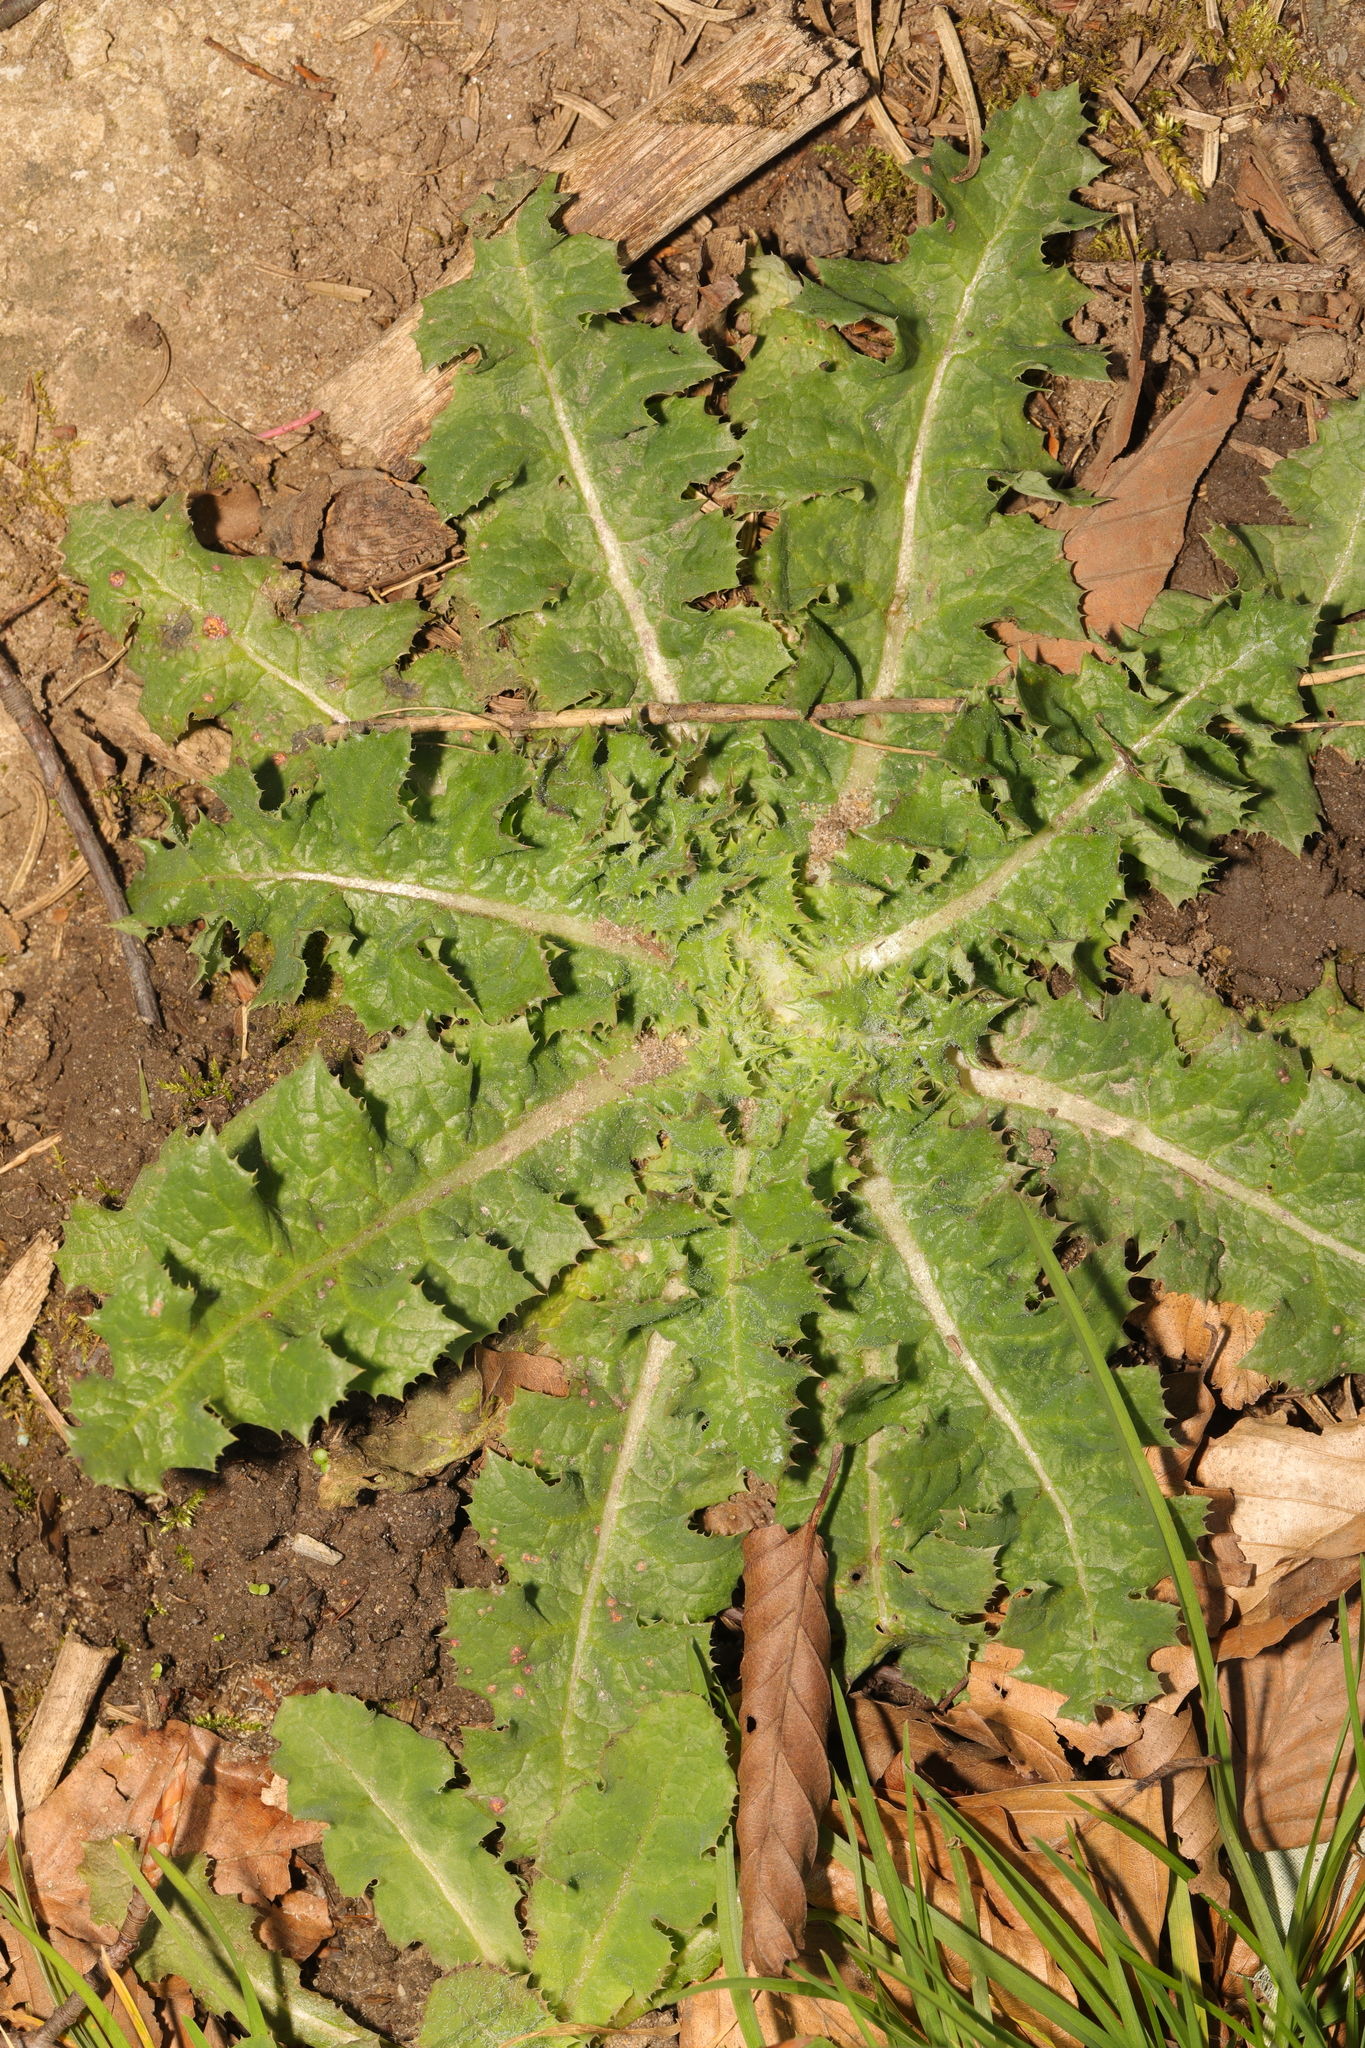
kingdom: Plantae
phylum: Tracheophyta
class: Magnoliopsida
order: Asterales
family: Asteraceae
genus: Sonchus
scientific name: Sonchus asper
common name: Prickly sow-thistle
